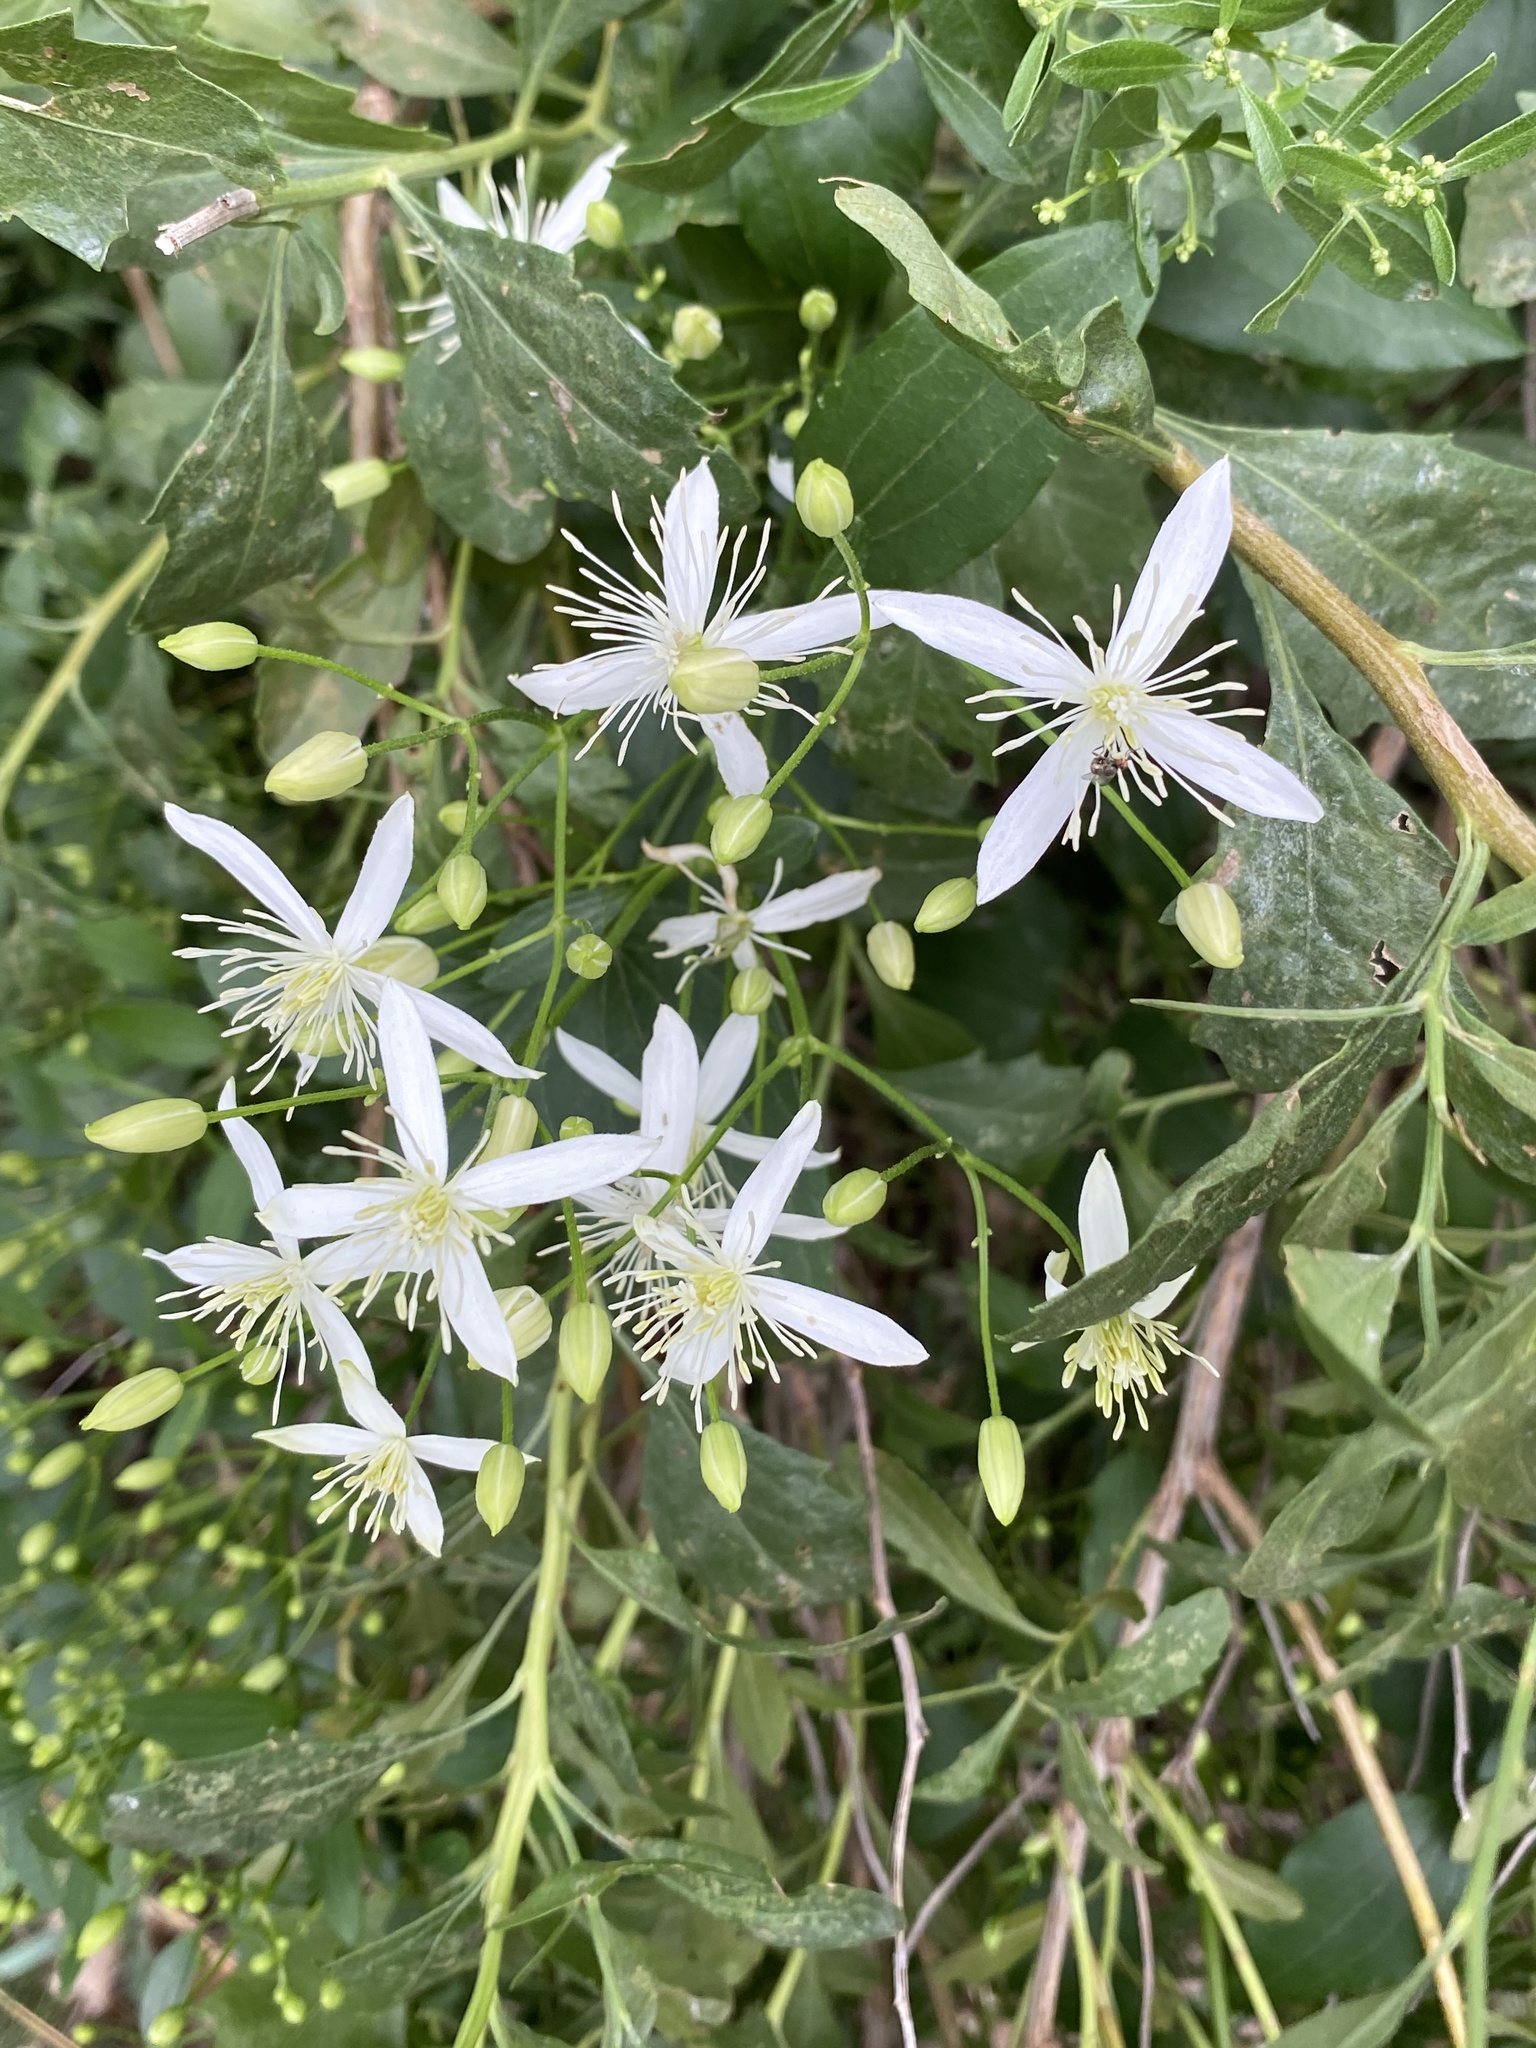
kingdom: Plantae
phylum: Tracheophyta
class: Magnoliopsida
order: Ranunculales
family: Ranunculaceae
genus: Clematis
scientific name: Clematis terniflora
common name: Sweet autumn clematis
